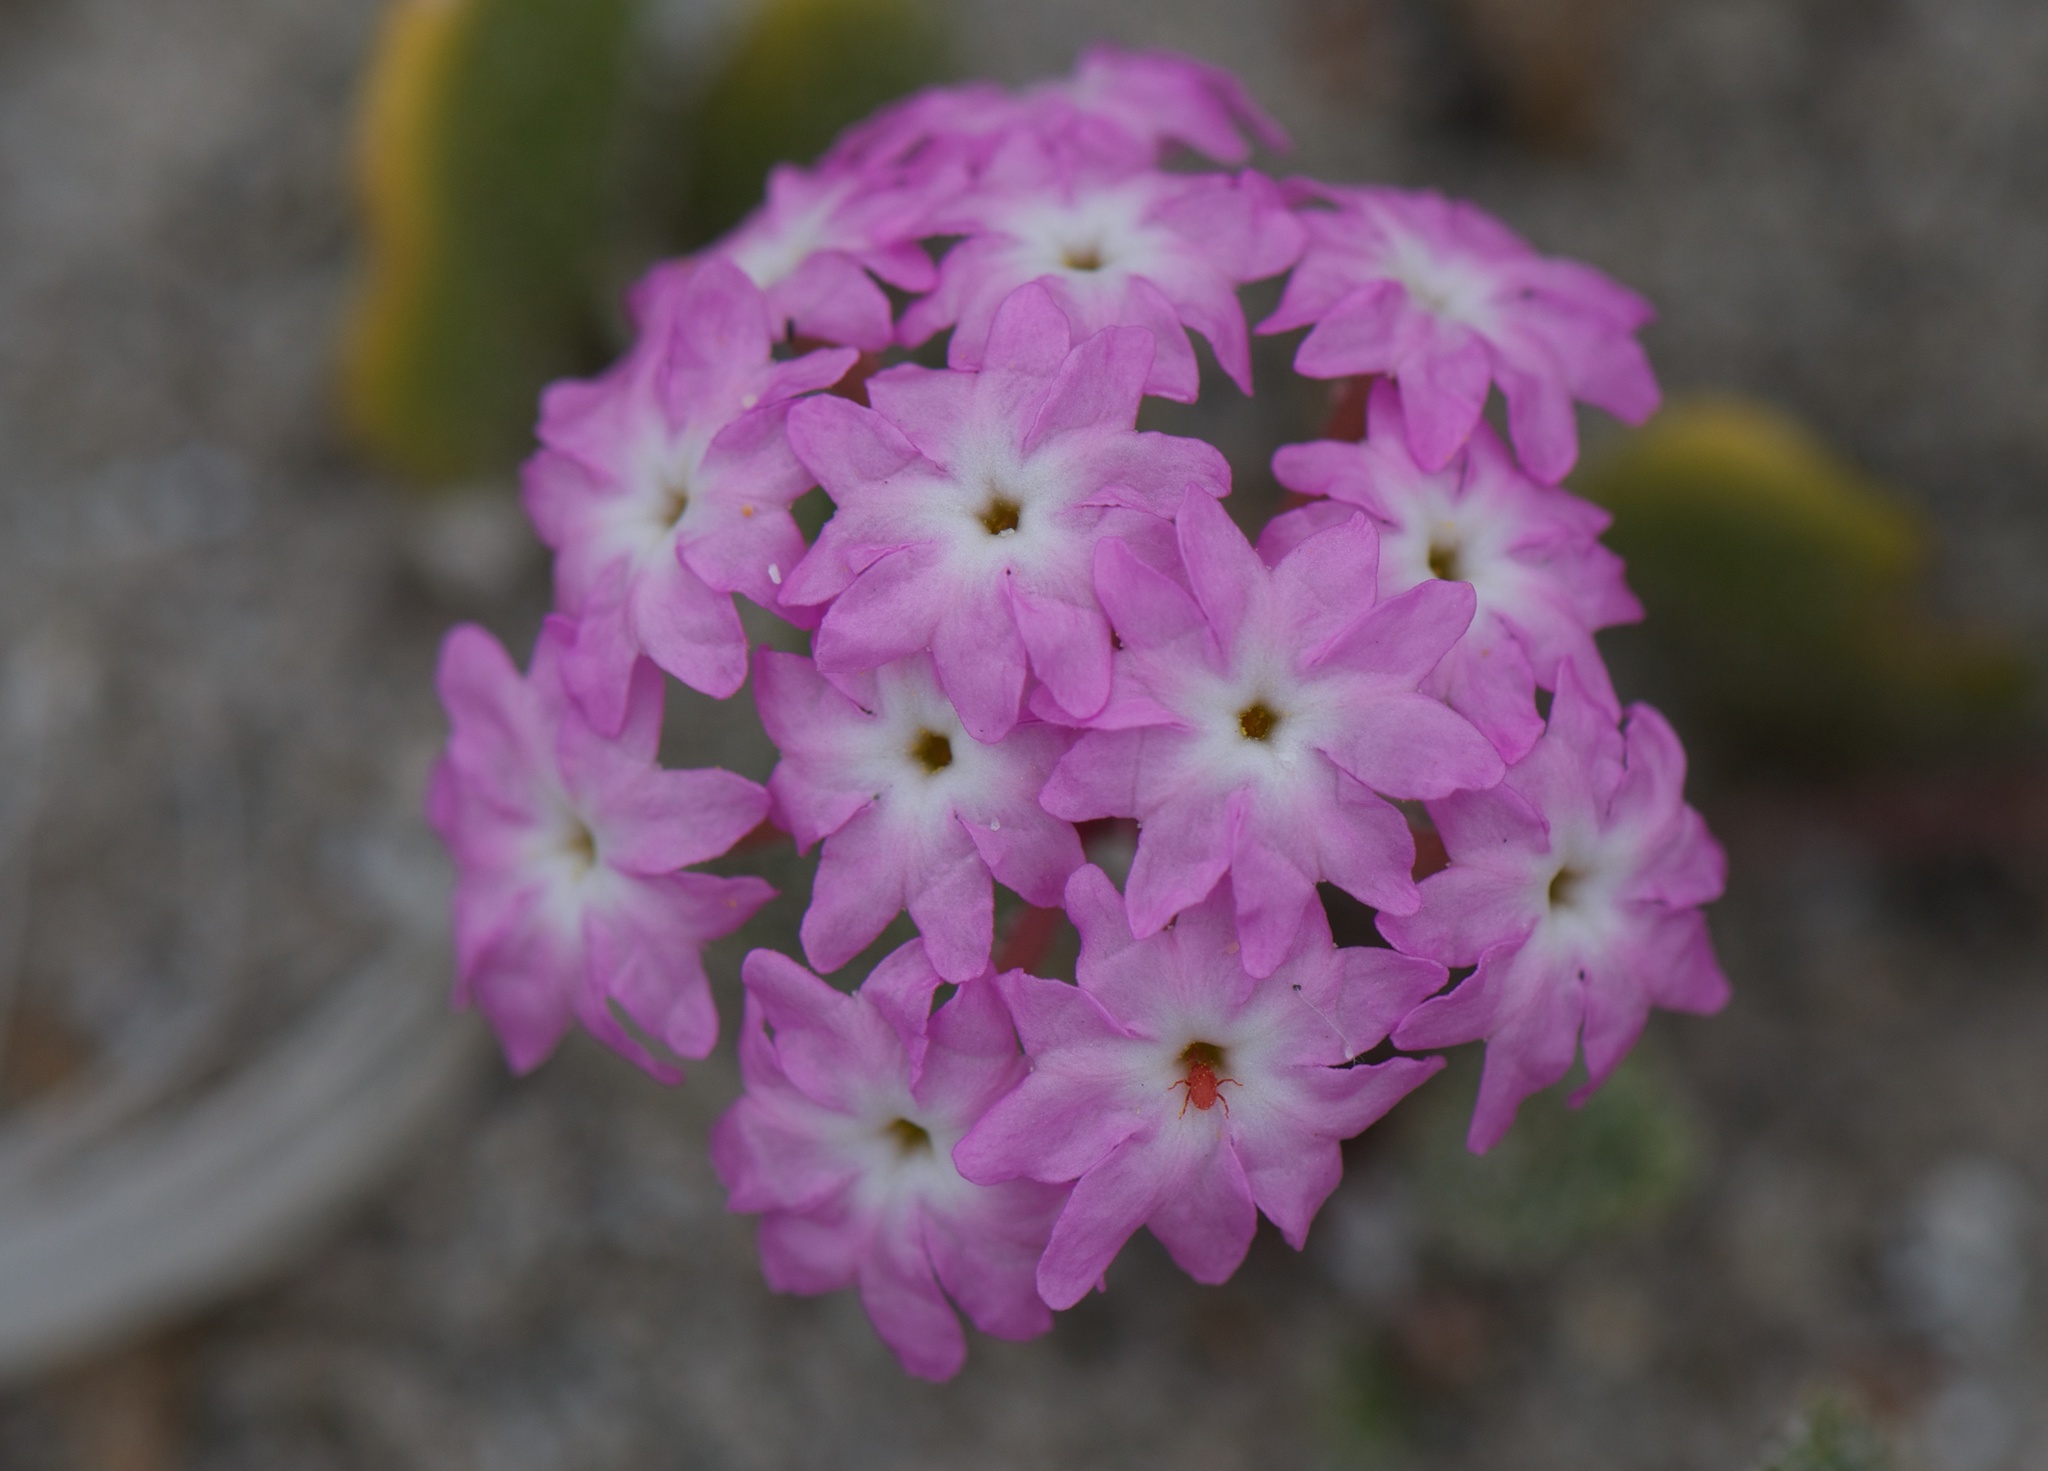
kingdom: Plantae
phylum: Tracheophyta
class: Magnoliopsida
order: Caryophyllales
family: Nyctaginaceae
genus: Abronia
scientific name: Abronia umbellata
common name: Sand-verbena
